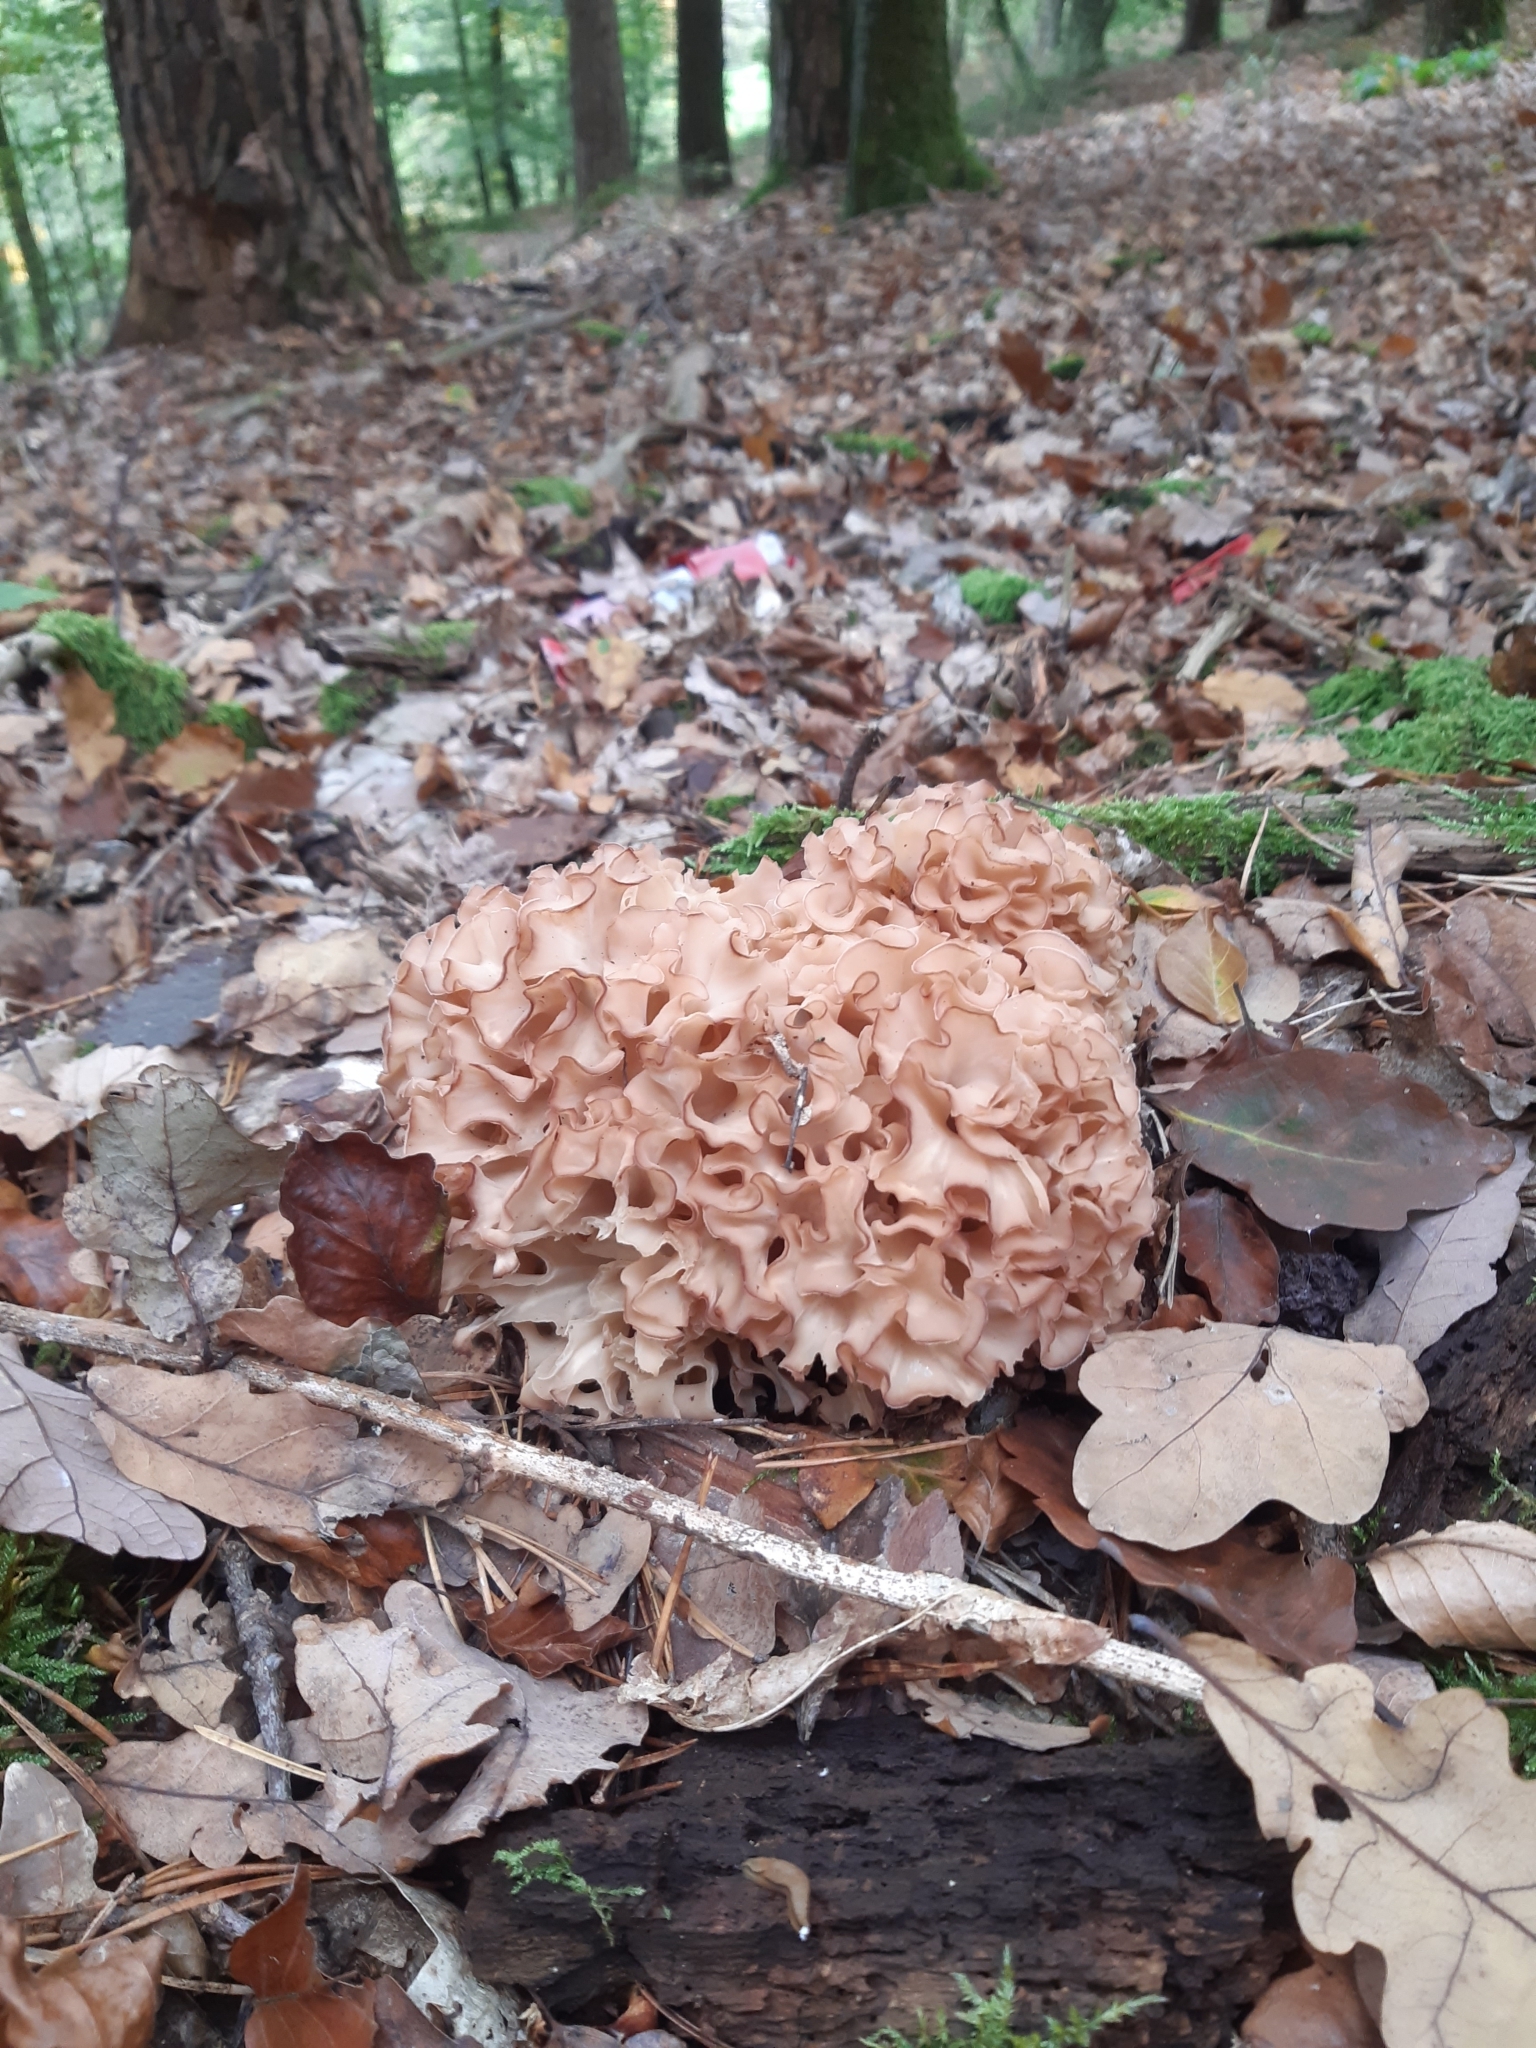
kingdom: Fungi
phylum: Basidiomycota
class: Agaricomycetes
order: Polyporales
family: Sparassidaceae
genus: Sparassis
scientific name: Sparassis crispa
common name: Brain fungus
